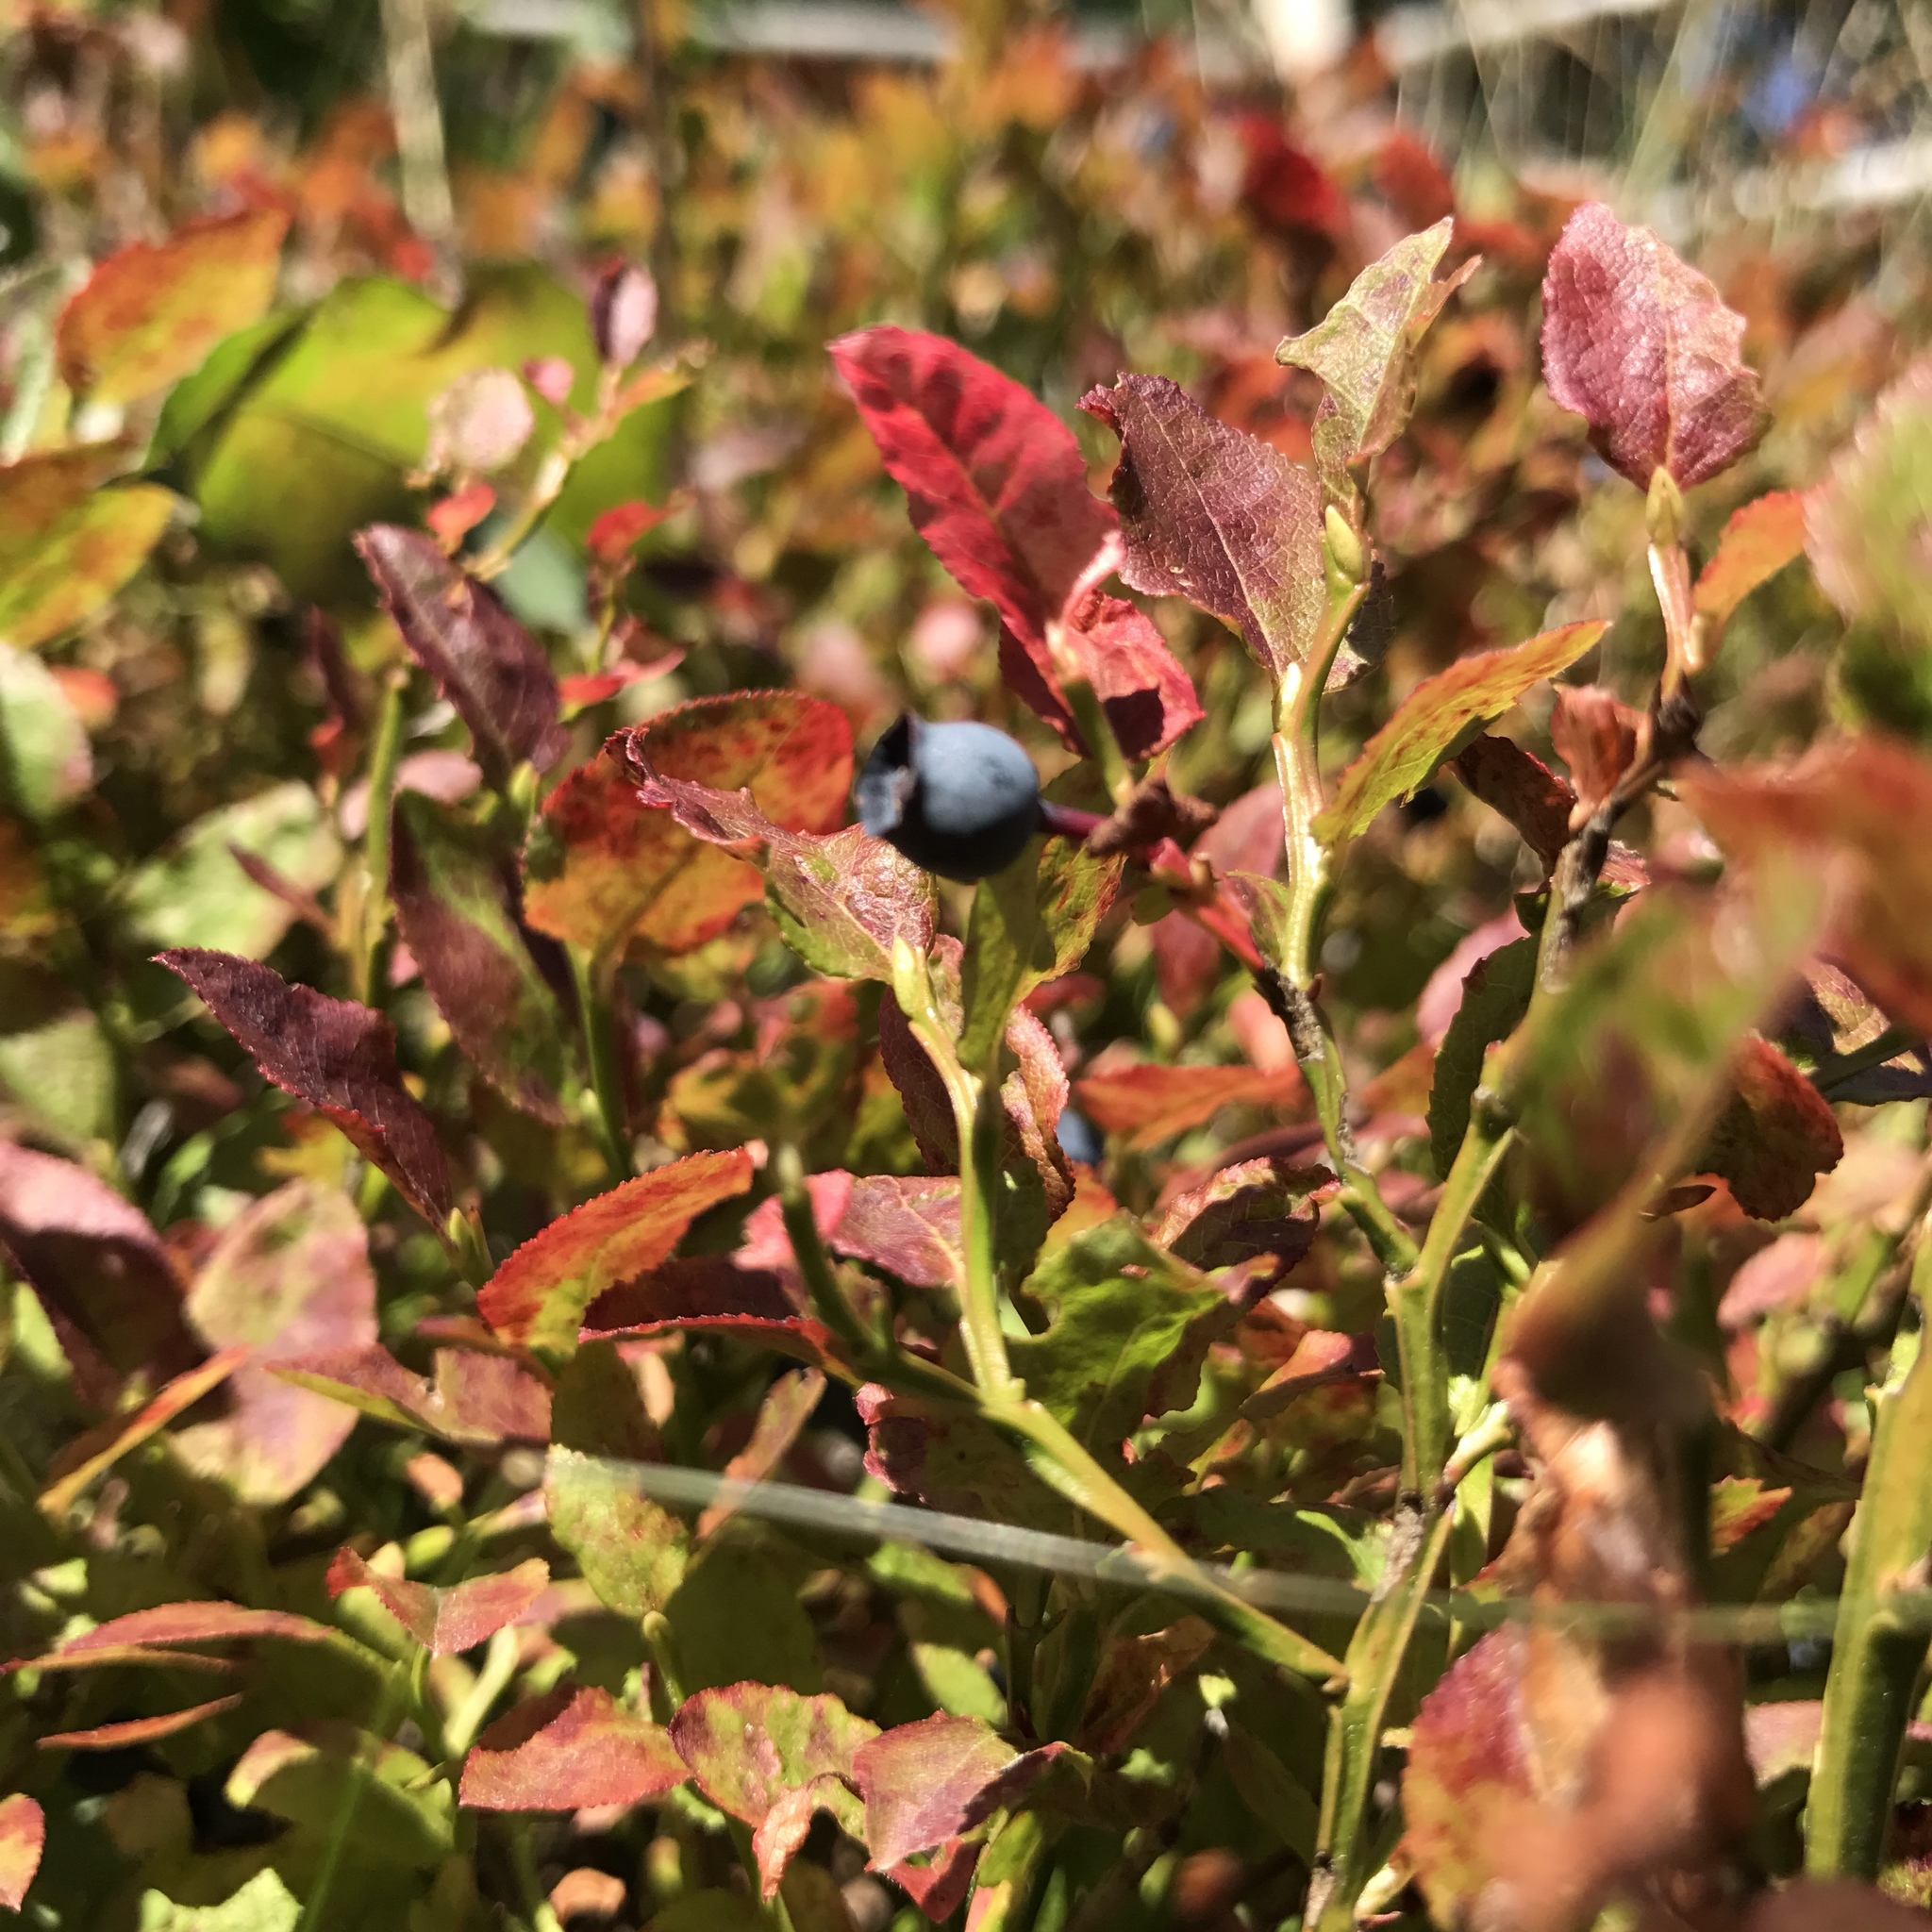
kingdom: Plantae
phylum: Tracheophyta
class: Magnoliopsida
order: Ericales
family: Ericaceae
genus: Vaccinium
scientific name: Vaccinium myrtillus
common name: Bilberry
